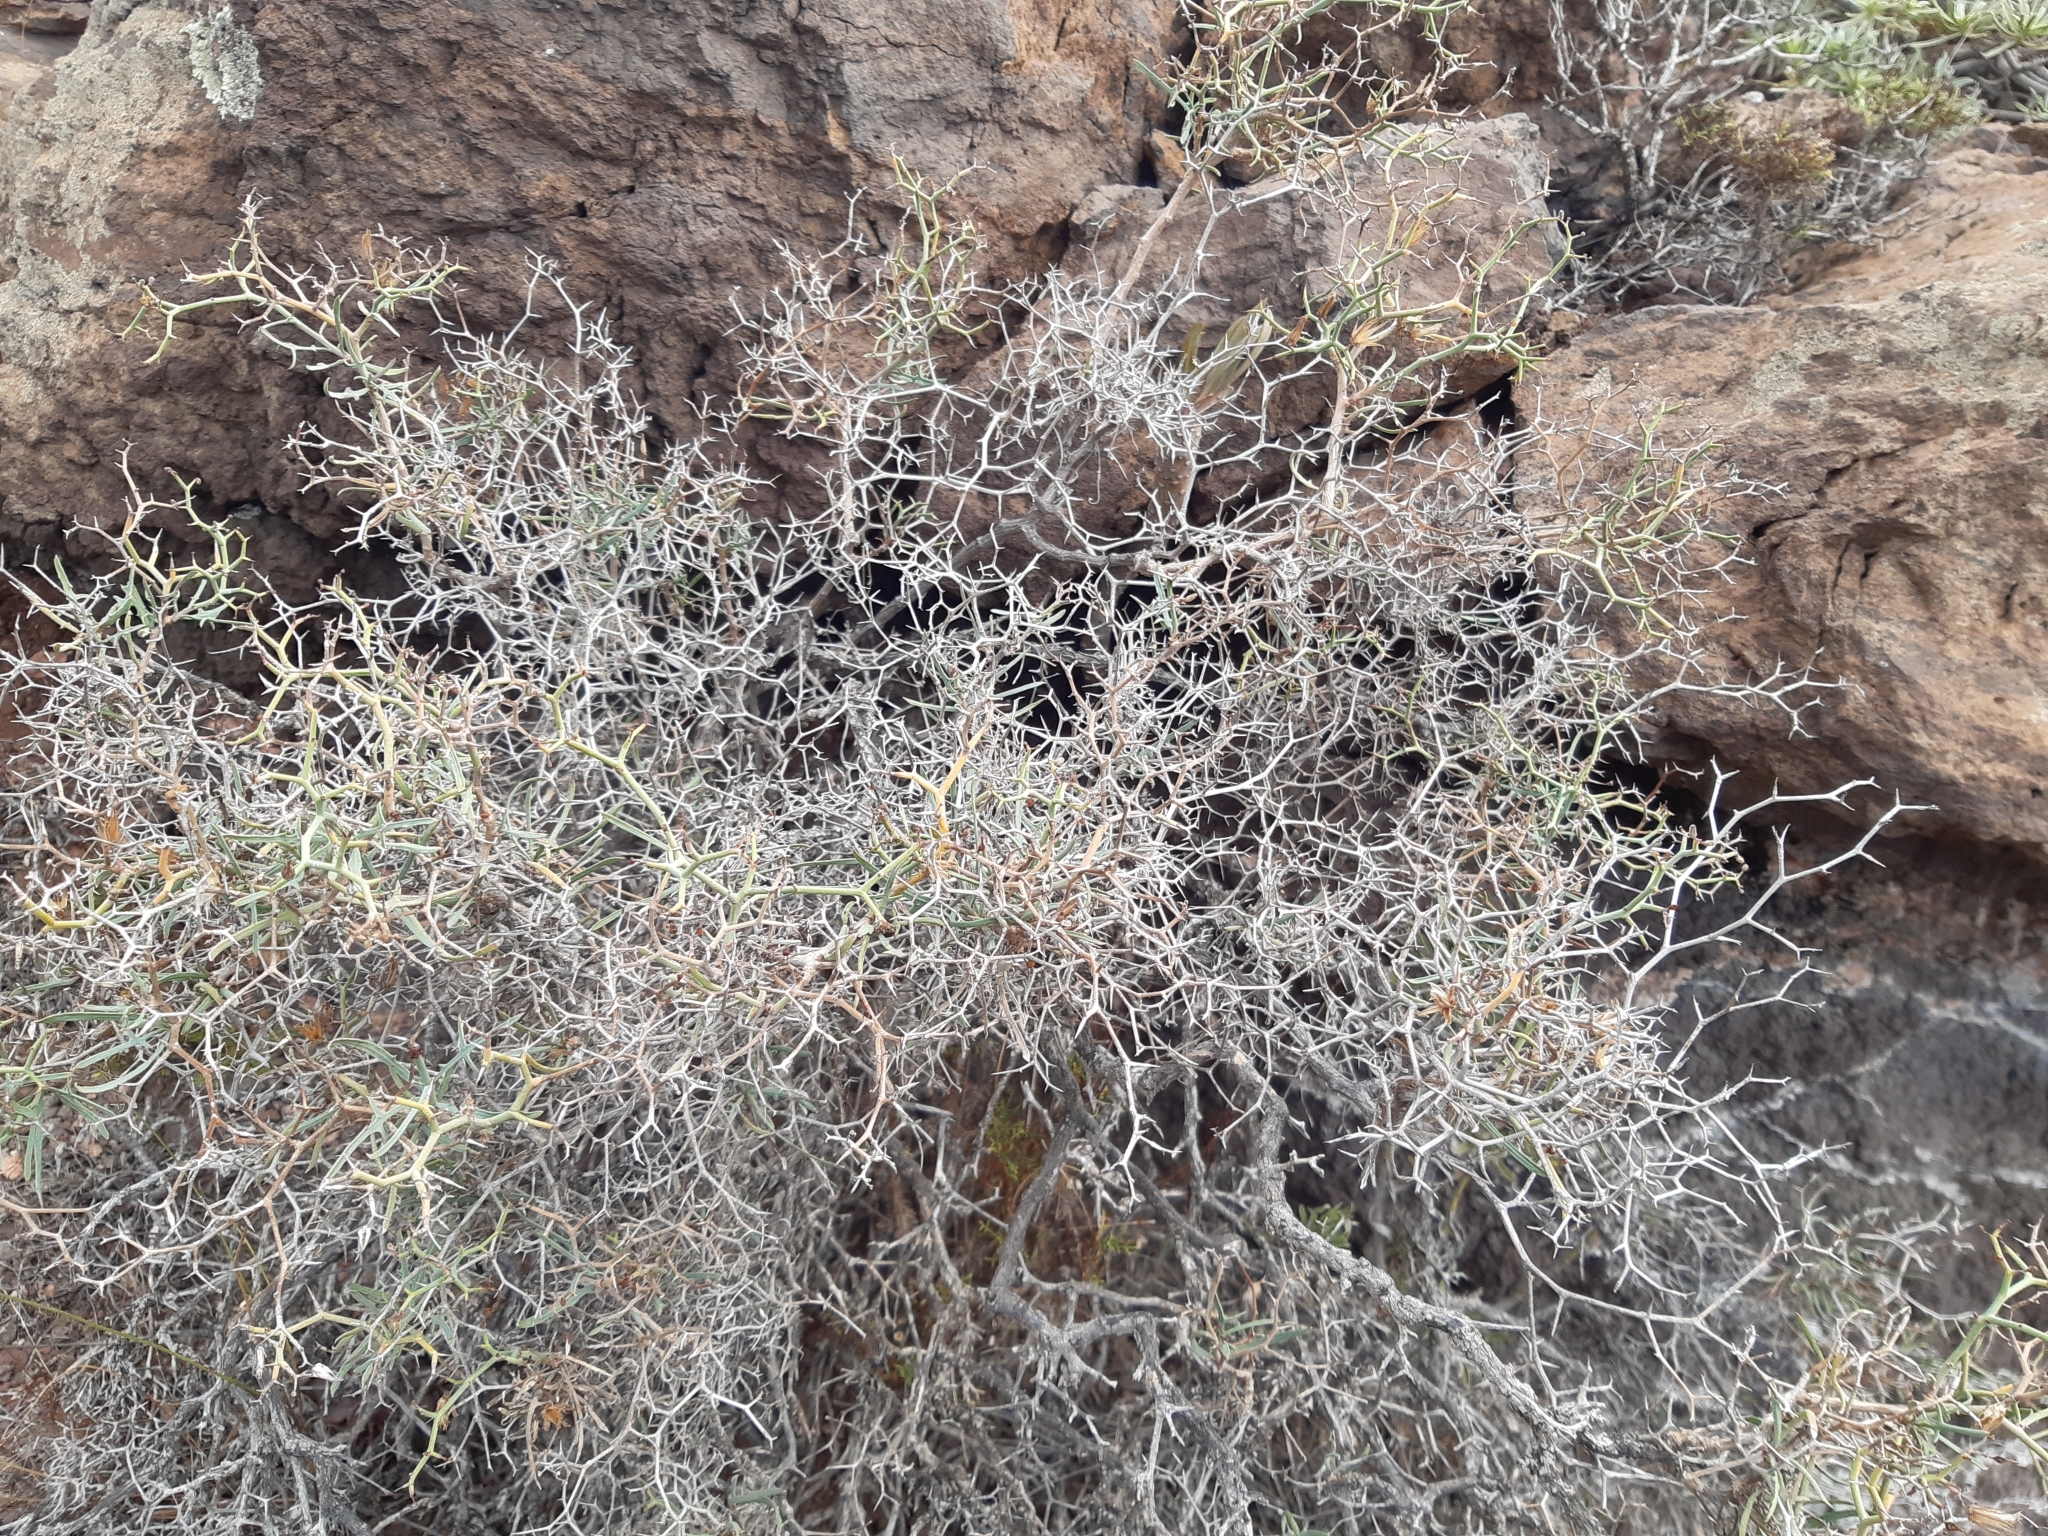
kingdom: Plantae
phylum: Tracheophyta
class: Magnoliopsida
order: Asterales
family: Asteraceae
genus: Launaea
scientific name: Launaea arborescens
